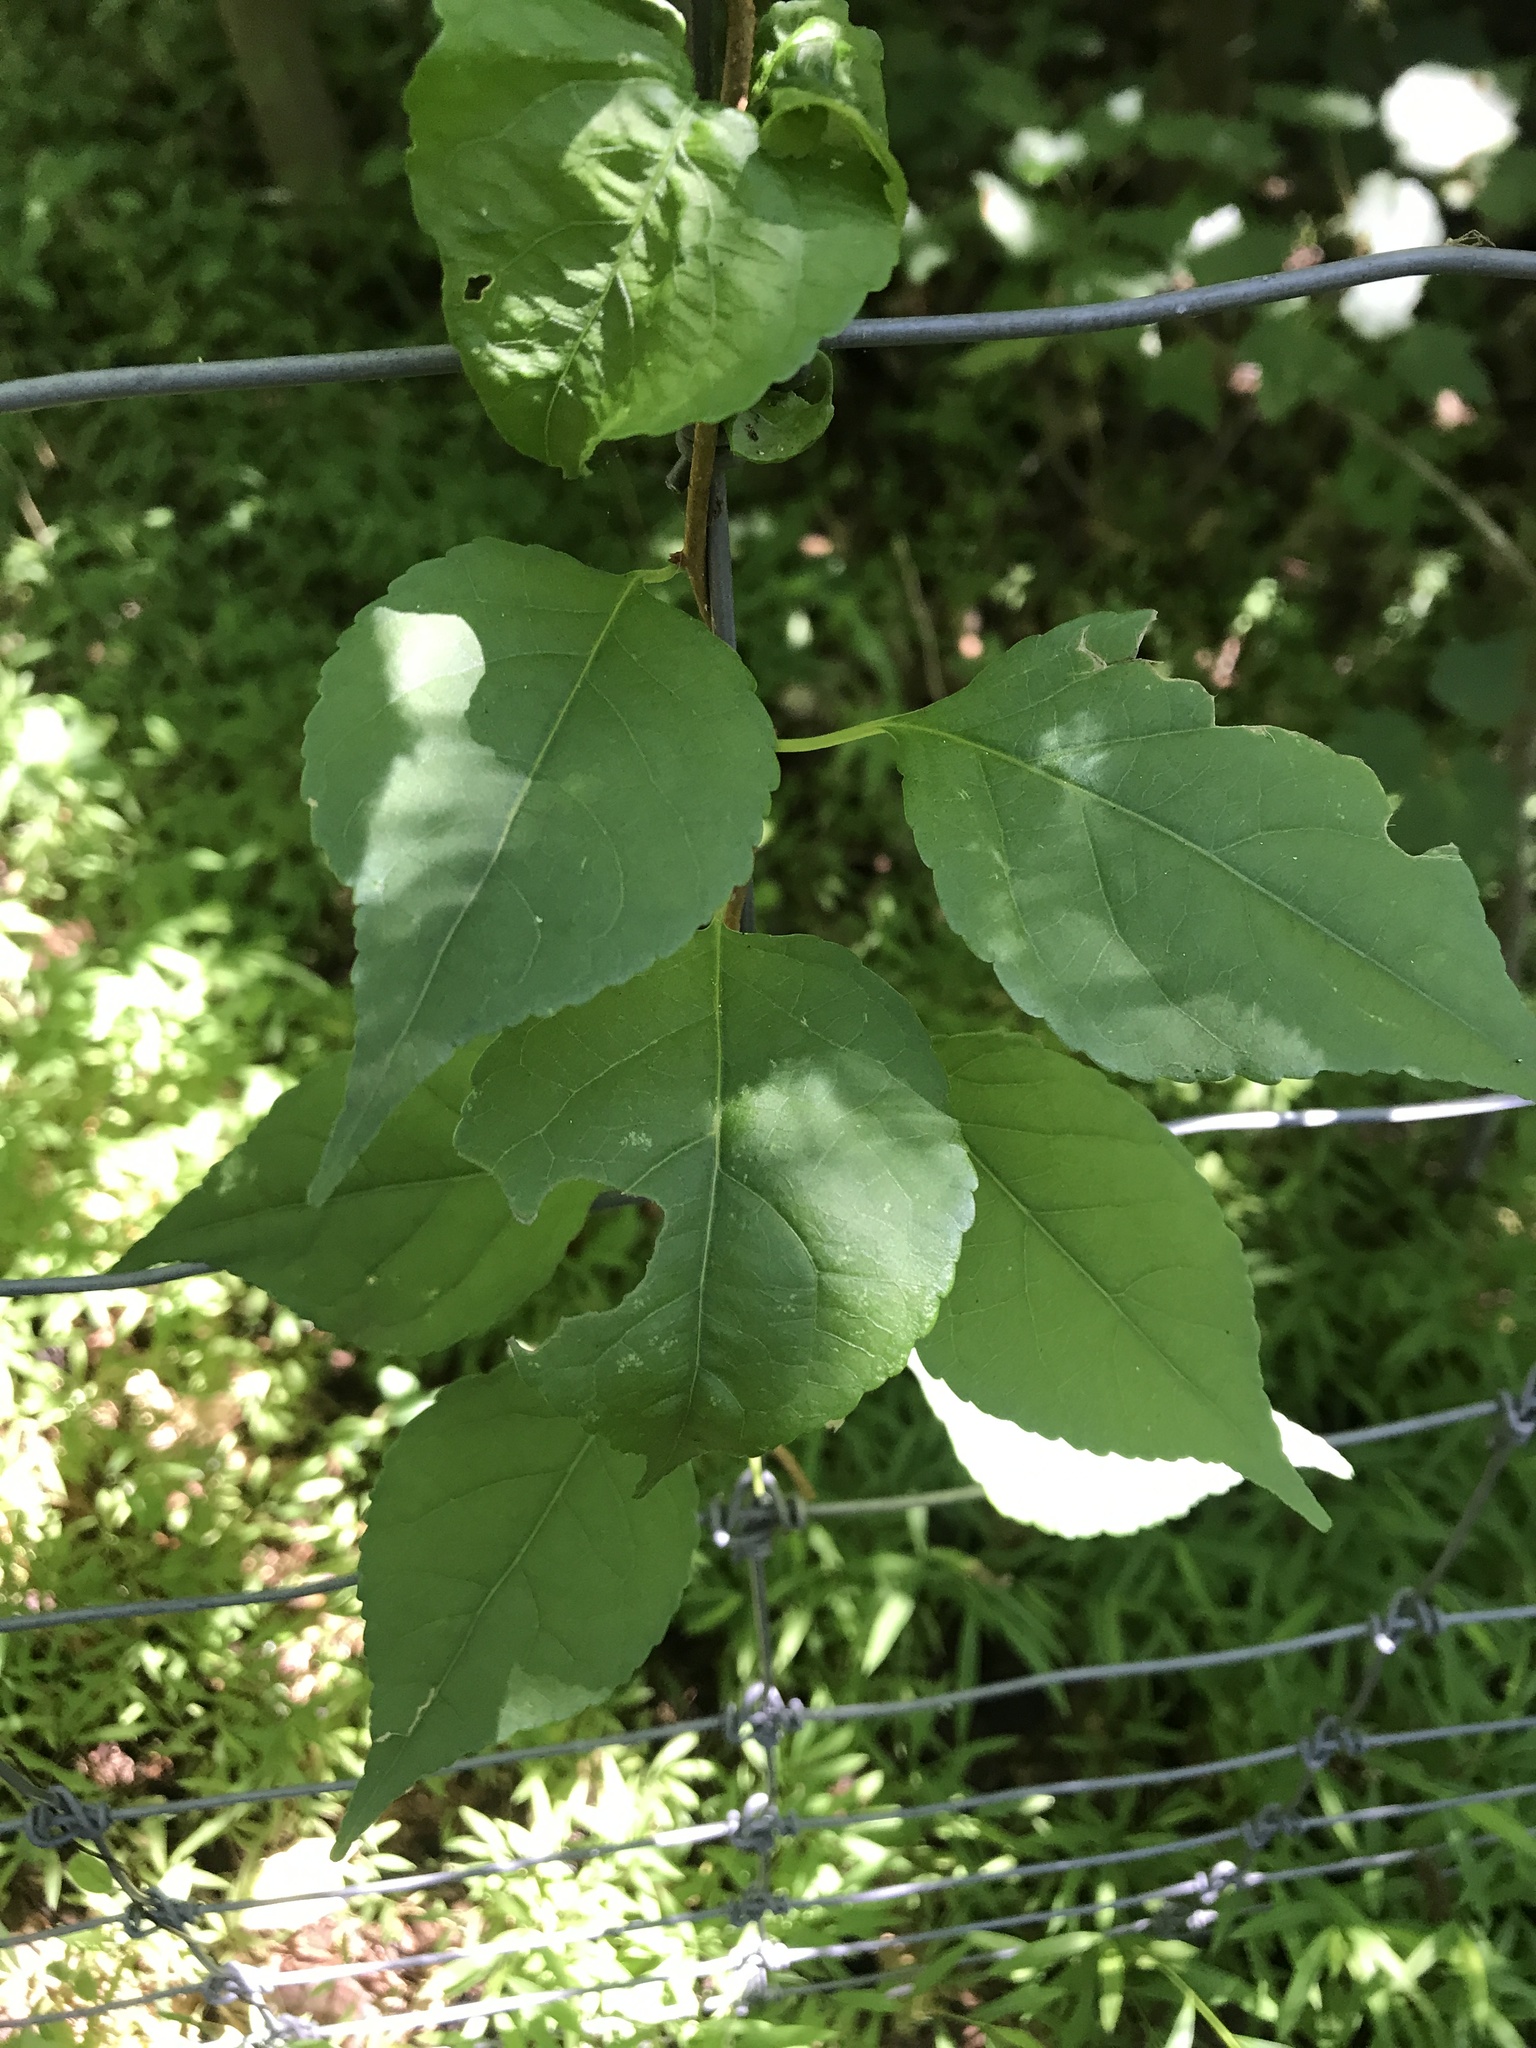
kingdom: Plantae
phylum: Tracheophyta
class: Magnoliopsida
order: Celastrales
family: Celastraceae
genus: Celastrus
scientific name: Celastrus orbiculatus
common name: Oriental bittersweet
